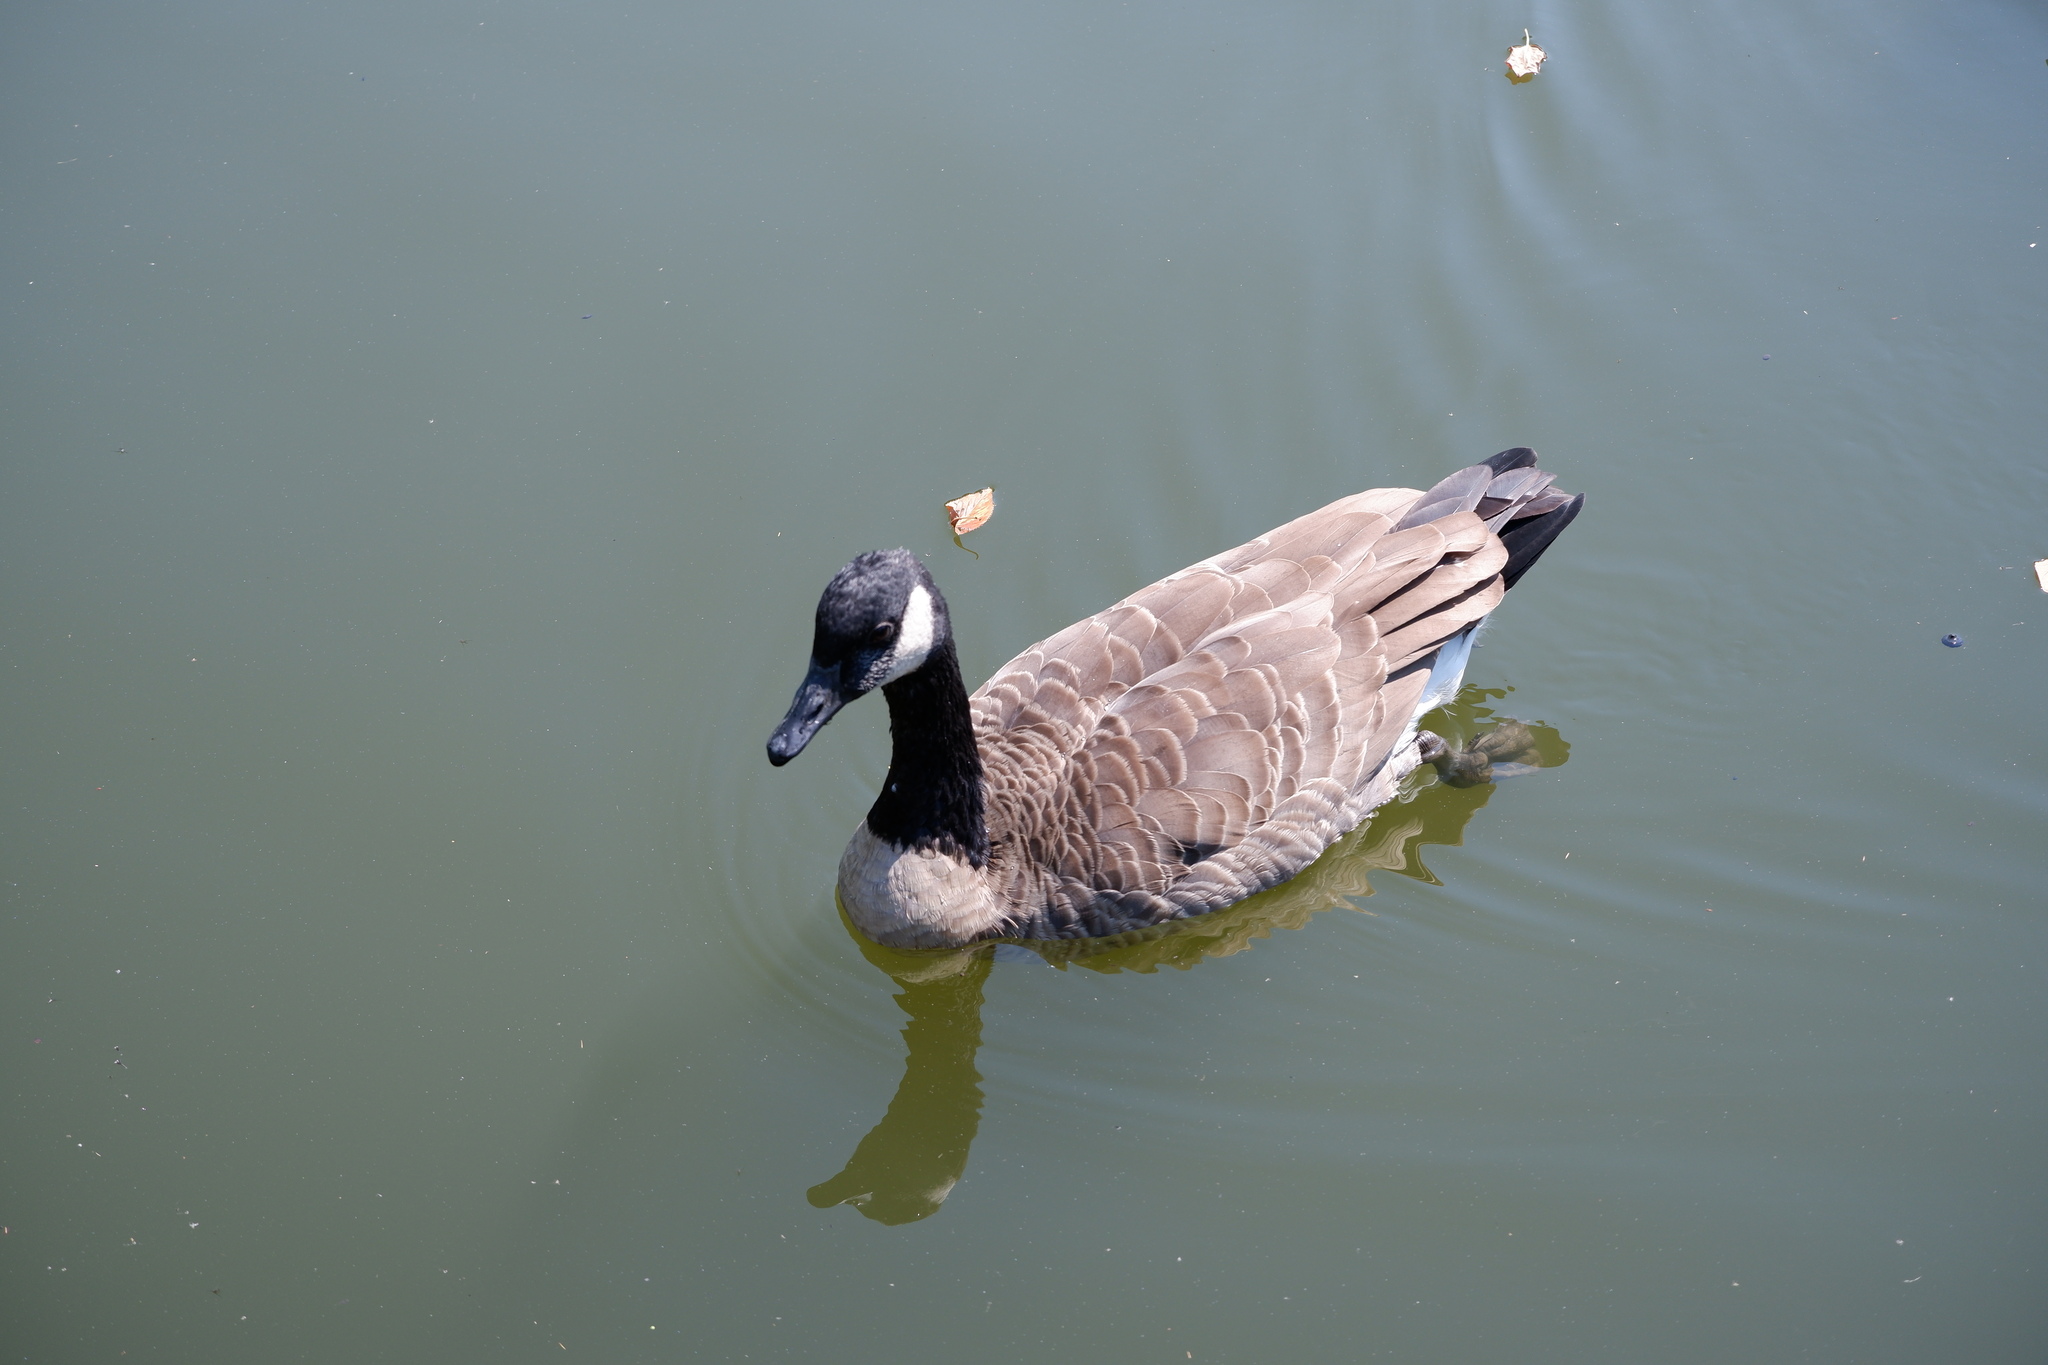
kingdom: Animalia
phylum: Chordata
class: Aves
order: Anseriformes
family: Anatidae
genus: Branta
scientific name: Branta canadensis
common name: Canada goose
